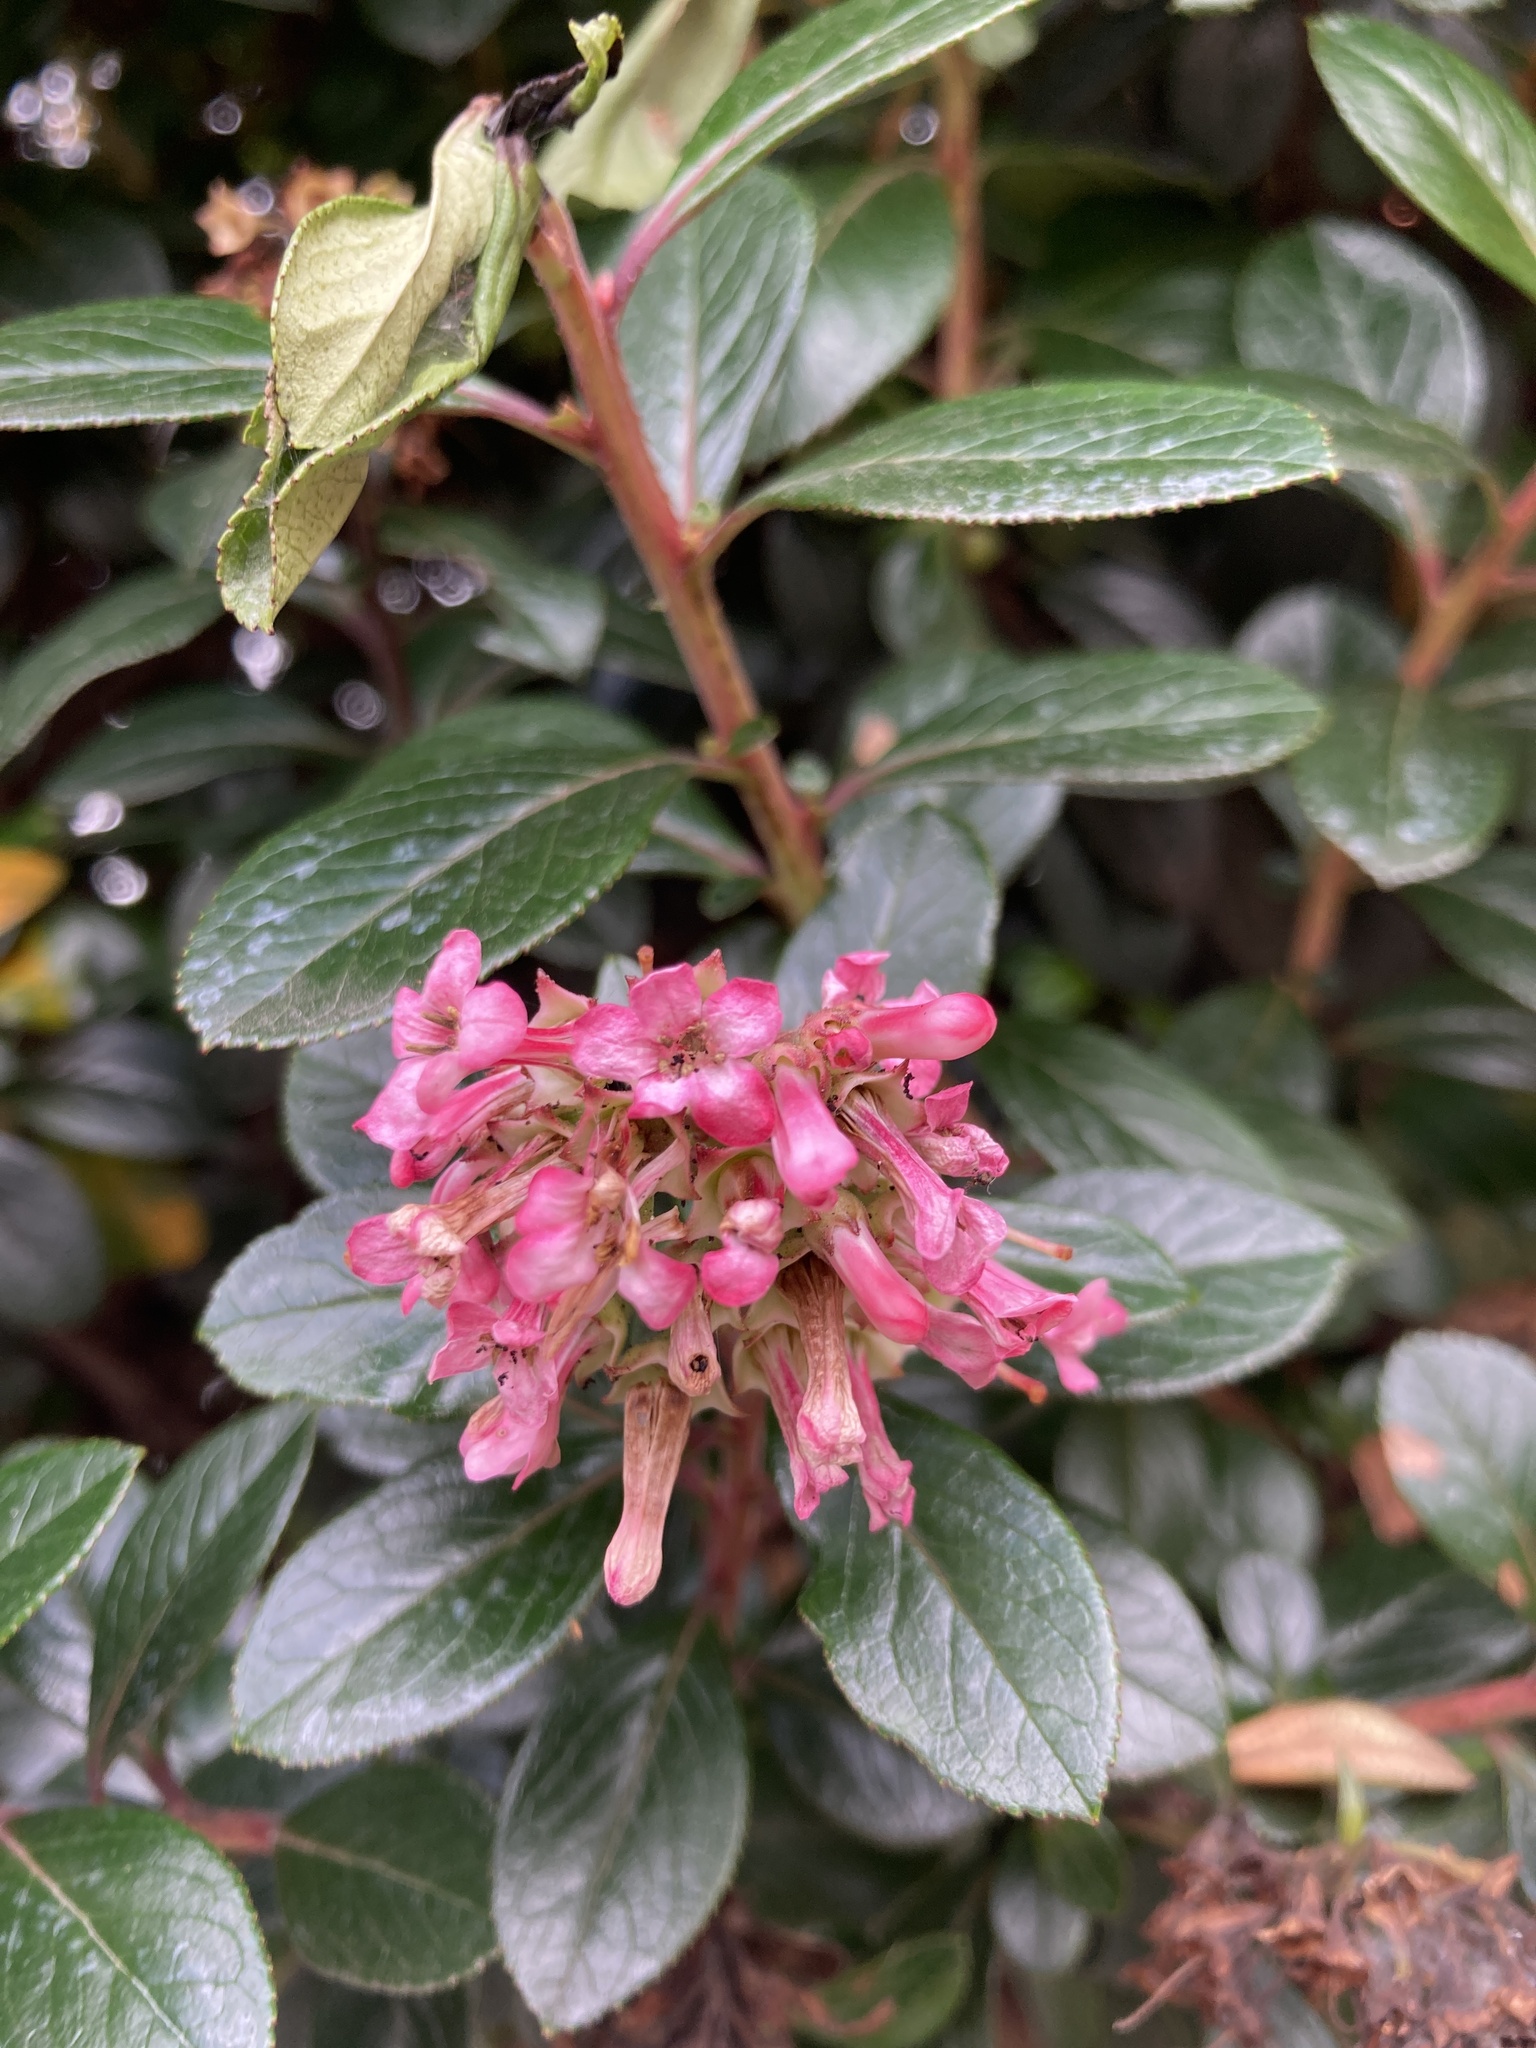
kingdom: Plantae
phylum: Tracheophyta
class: Magnoliopsida
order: Escalloniales
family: Escalloniaceae
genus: Escallonia
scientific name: Escallonia rubra
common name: Redclaws
